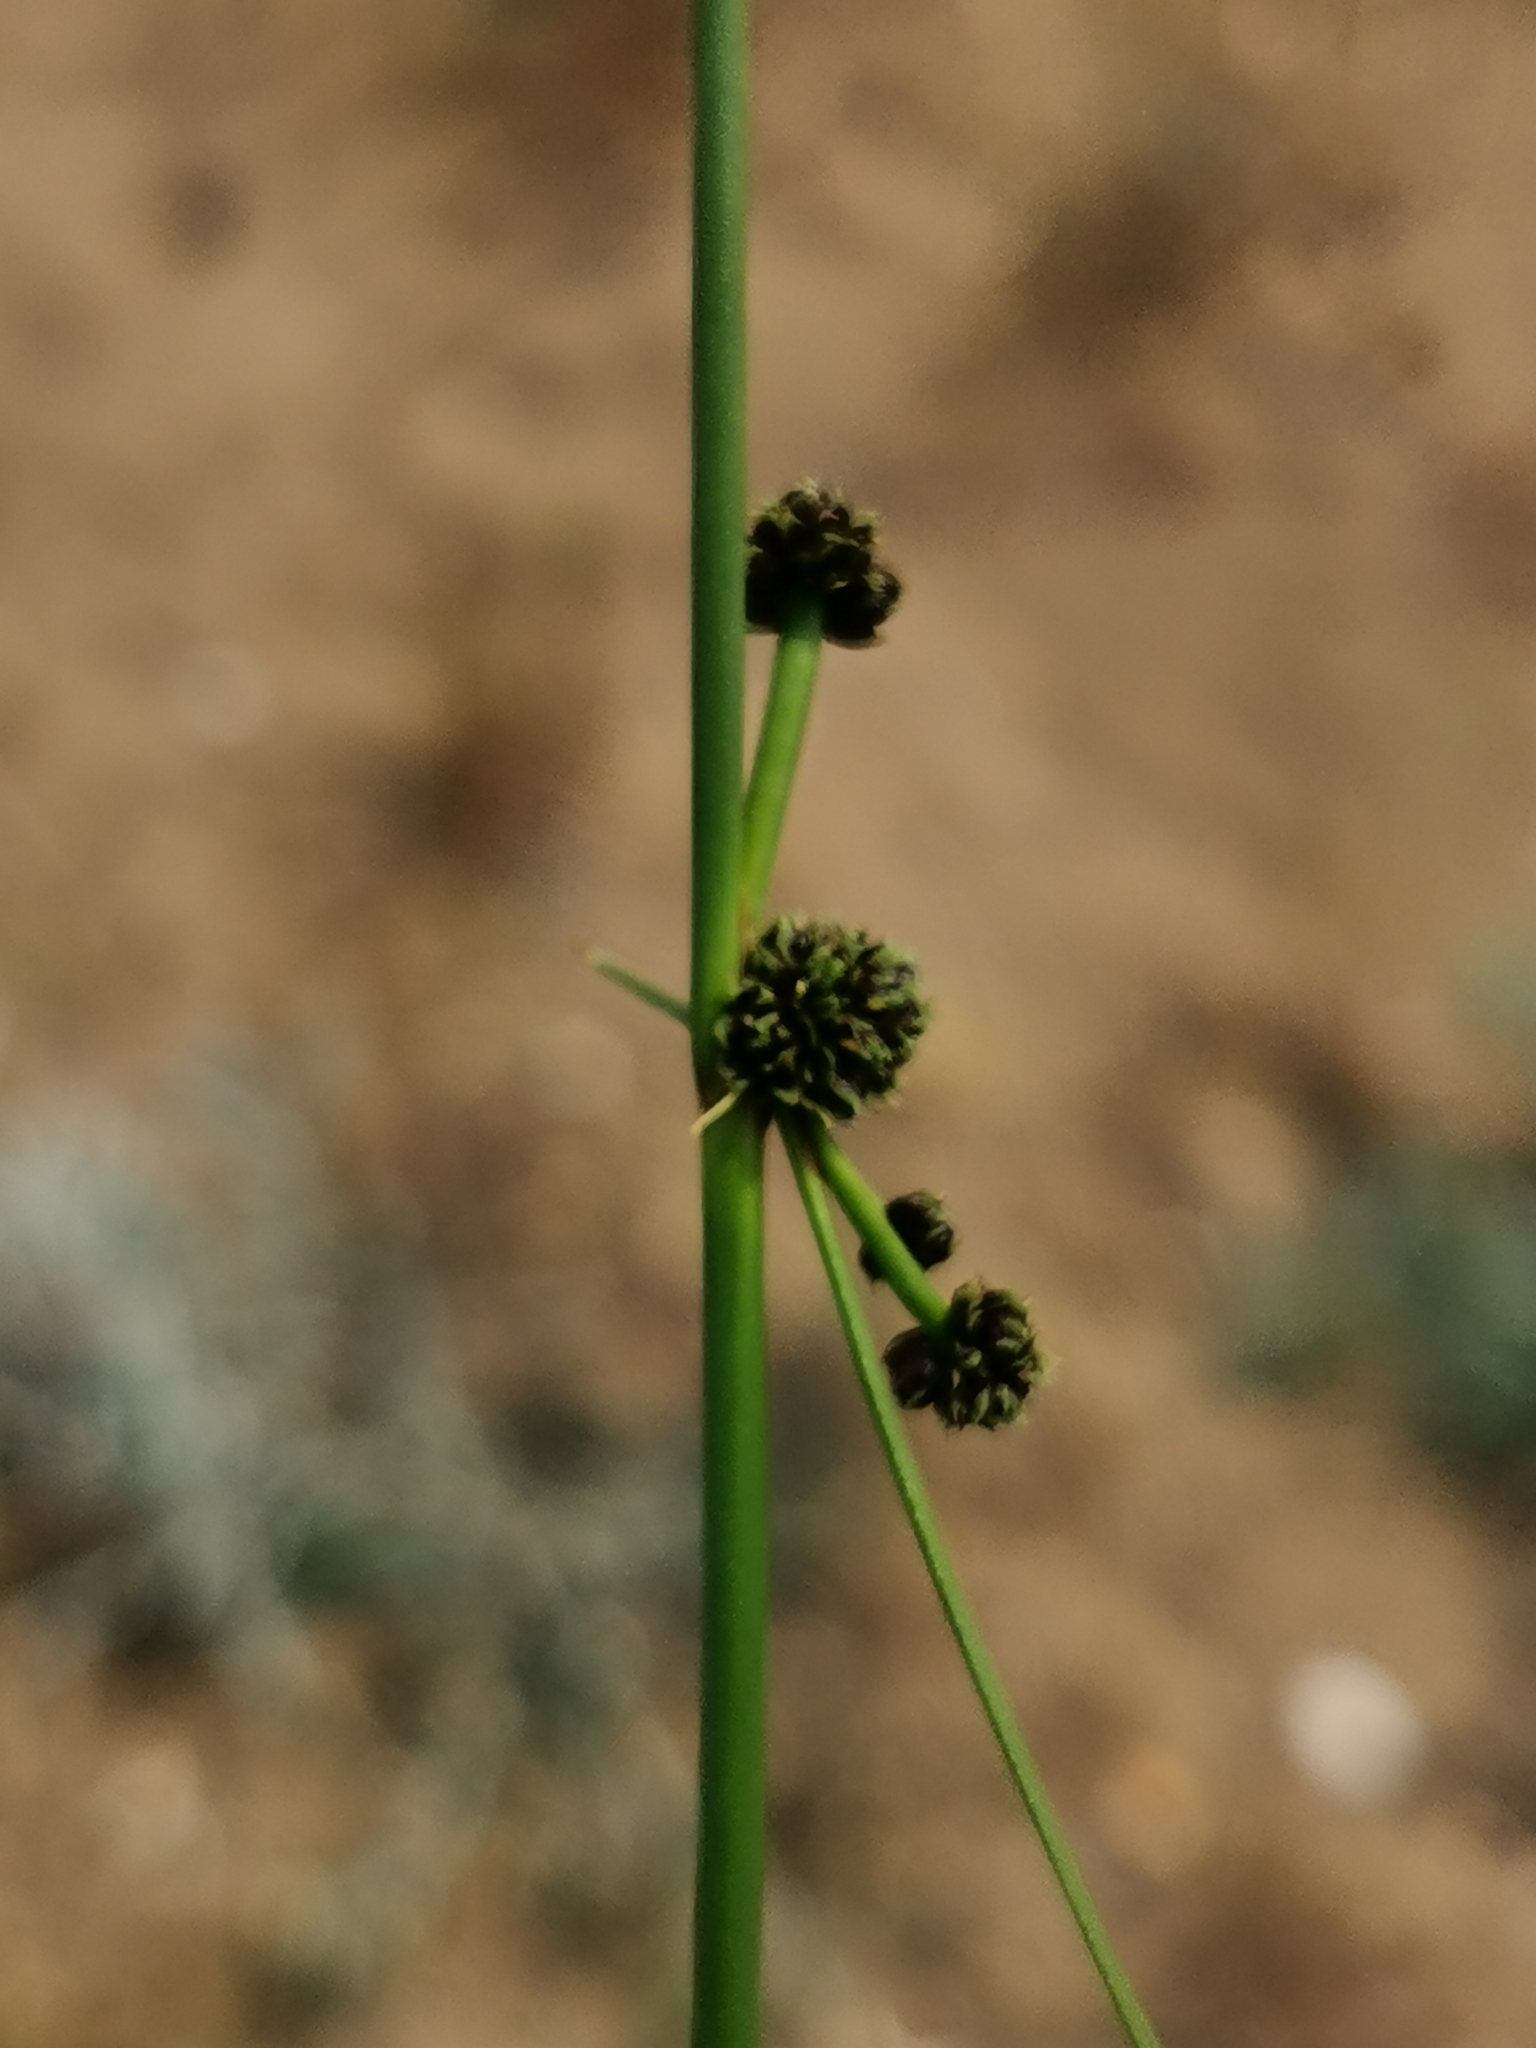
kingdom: Plantae
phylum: Tracheophyta
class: Liliopsida
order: Poales
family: Cyperaceae
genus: Scirpoides
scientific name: Scirpoides holoschoenus
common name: Round-headed club-rush
